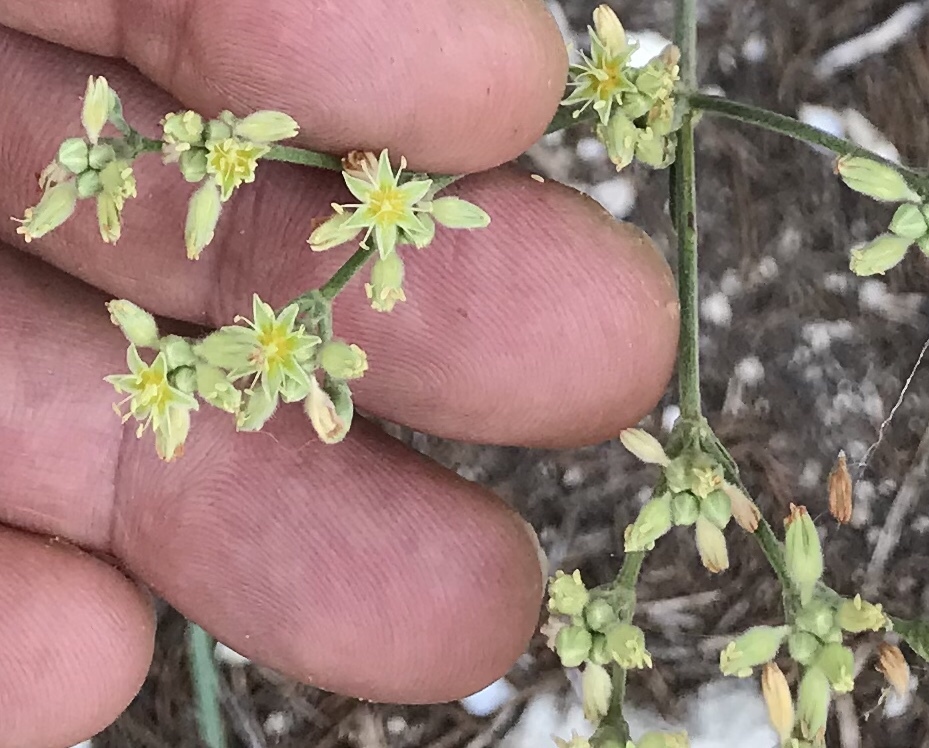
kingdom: Plantae
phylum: Tracheophyta
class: Magnoliopsida
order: Caryophyllales
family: Polygonaceae
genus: Eriogonum
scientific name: Eriogonum longifolium
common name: Longleaf wild buckwheat
